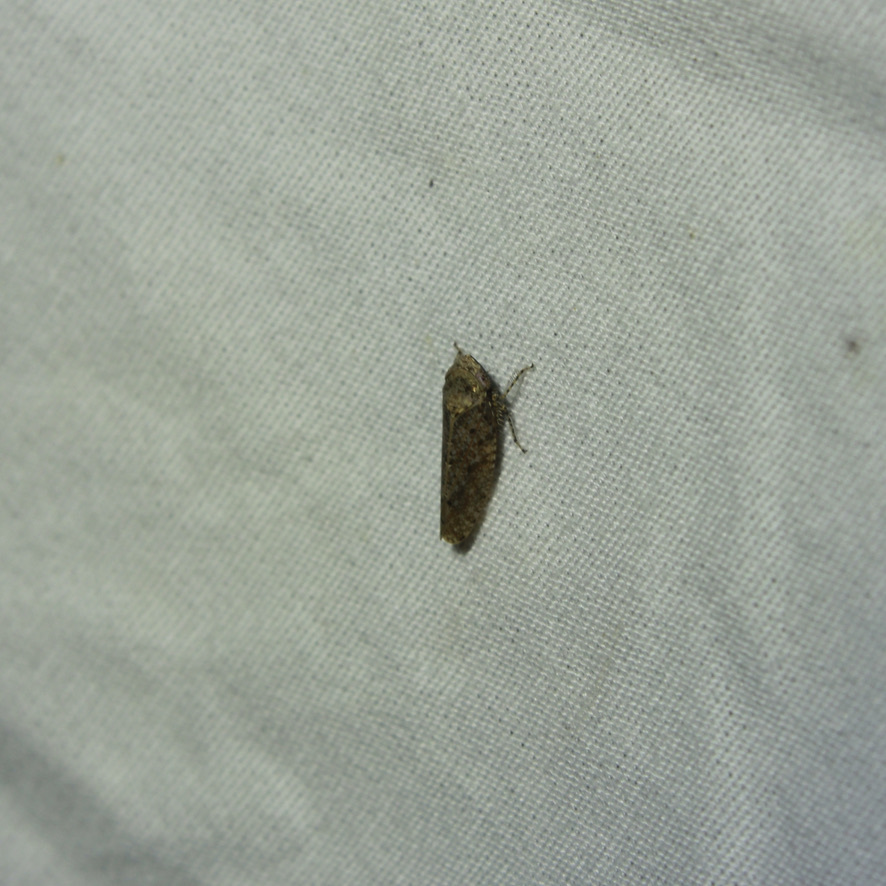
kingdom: Animalia
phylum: Arthropoda
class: Insecta
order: Hemiptera
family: Cicadellidae
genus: Excultanus
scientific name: Excultanus excultus
